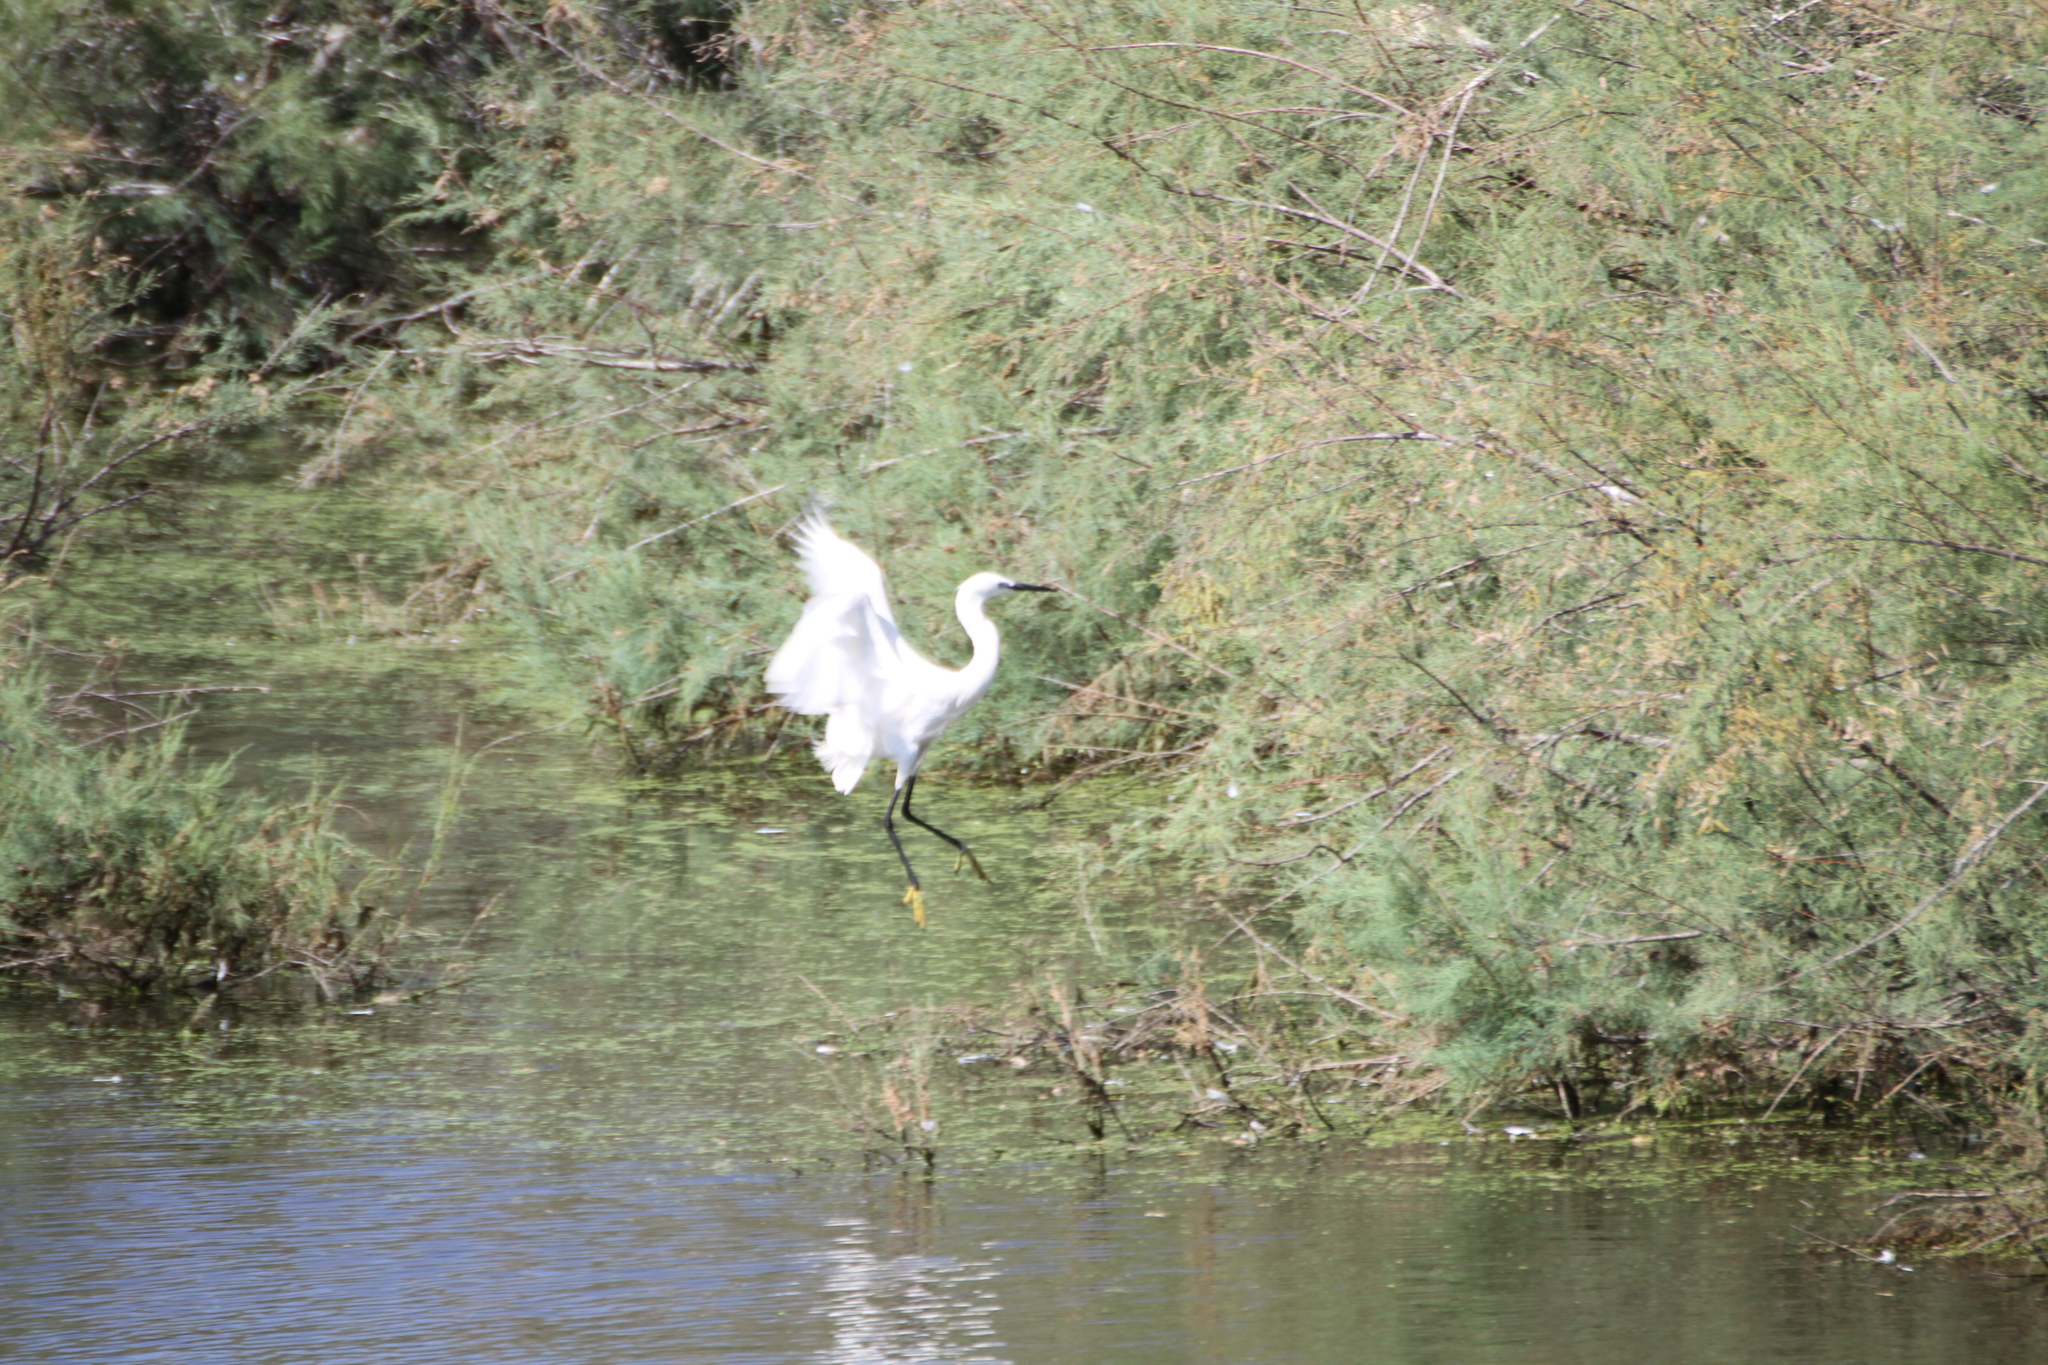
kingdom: Animalia
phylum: Chordata
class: Aves
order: Pelecaniformes
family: Ardeidae
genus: Egretta
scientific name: Egretta garzetta
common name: Little egret
